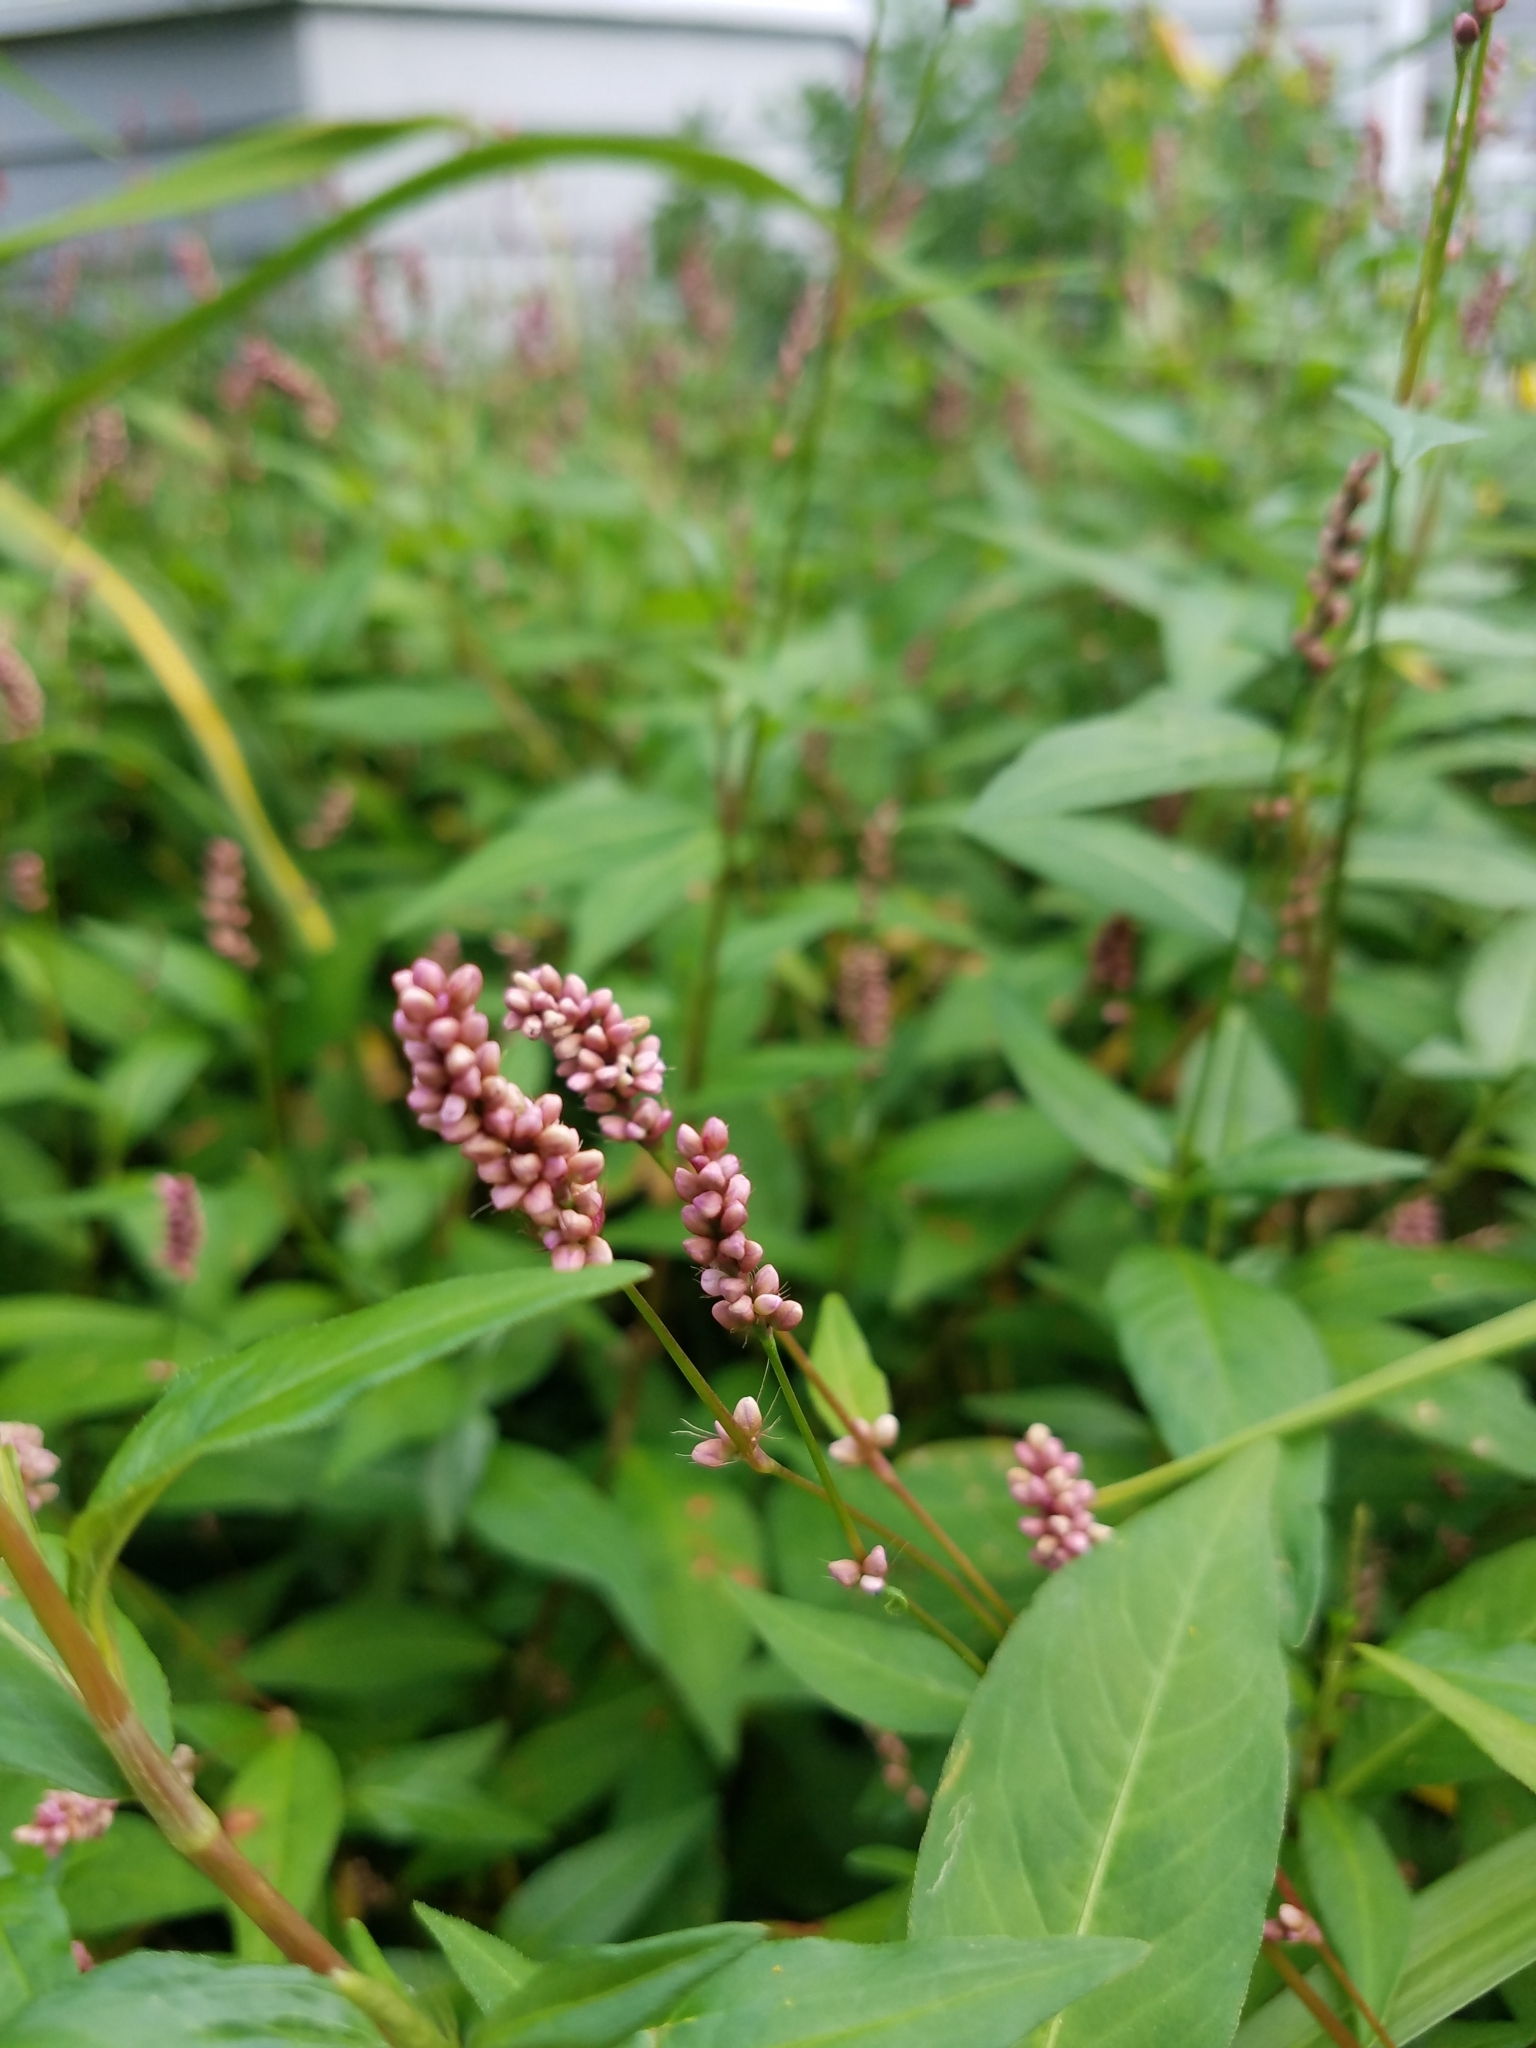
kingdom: Plantae
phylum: Tracheophyta
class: Magnoliopsida
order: Caryophyllales
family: Polygonaceae
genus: Persicaria
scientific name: Persicaria longiseta
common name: Bristly lady's-thumb
